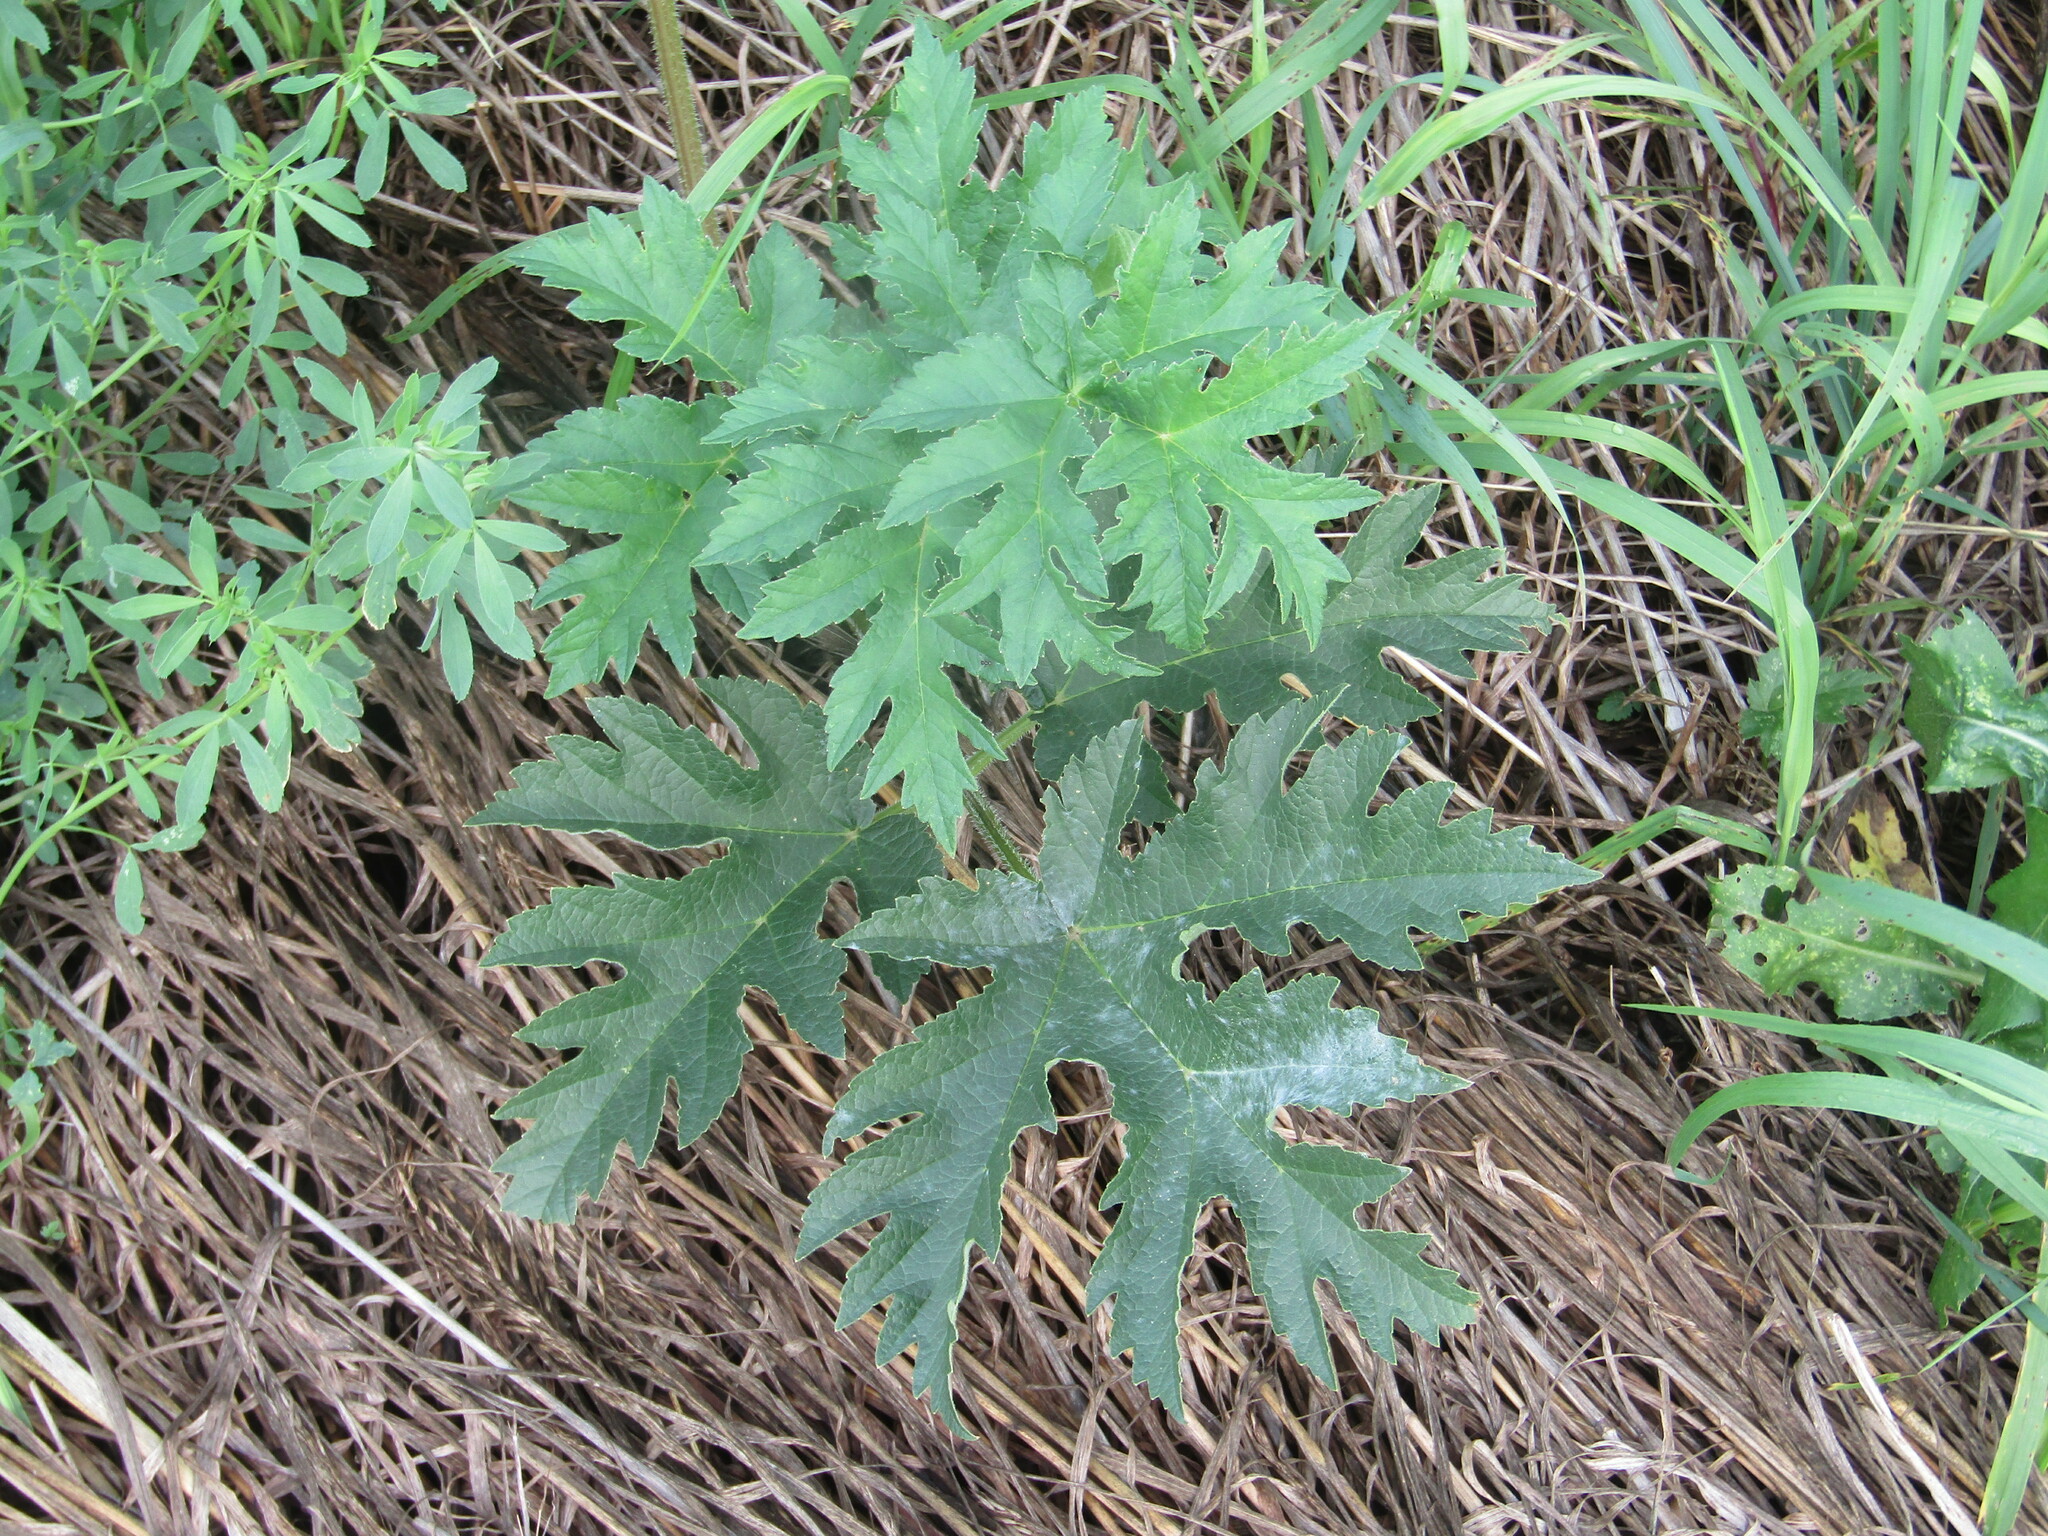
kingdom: Plantae
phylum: Tracheophyta
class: Magnoliopsida
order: Apiales
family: Apiaceae
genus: Heracleum
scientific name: Heracleum sphondylium
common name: Hogweed
